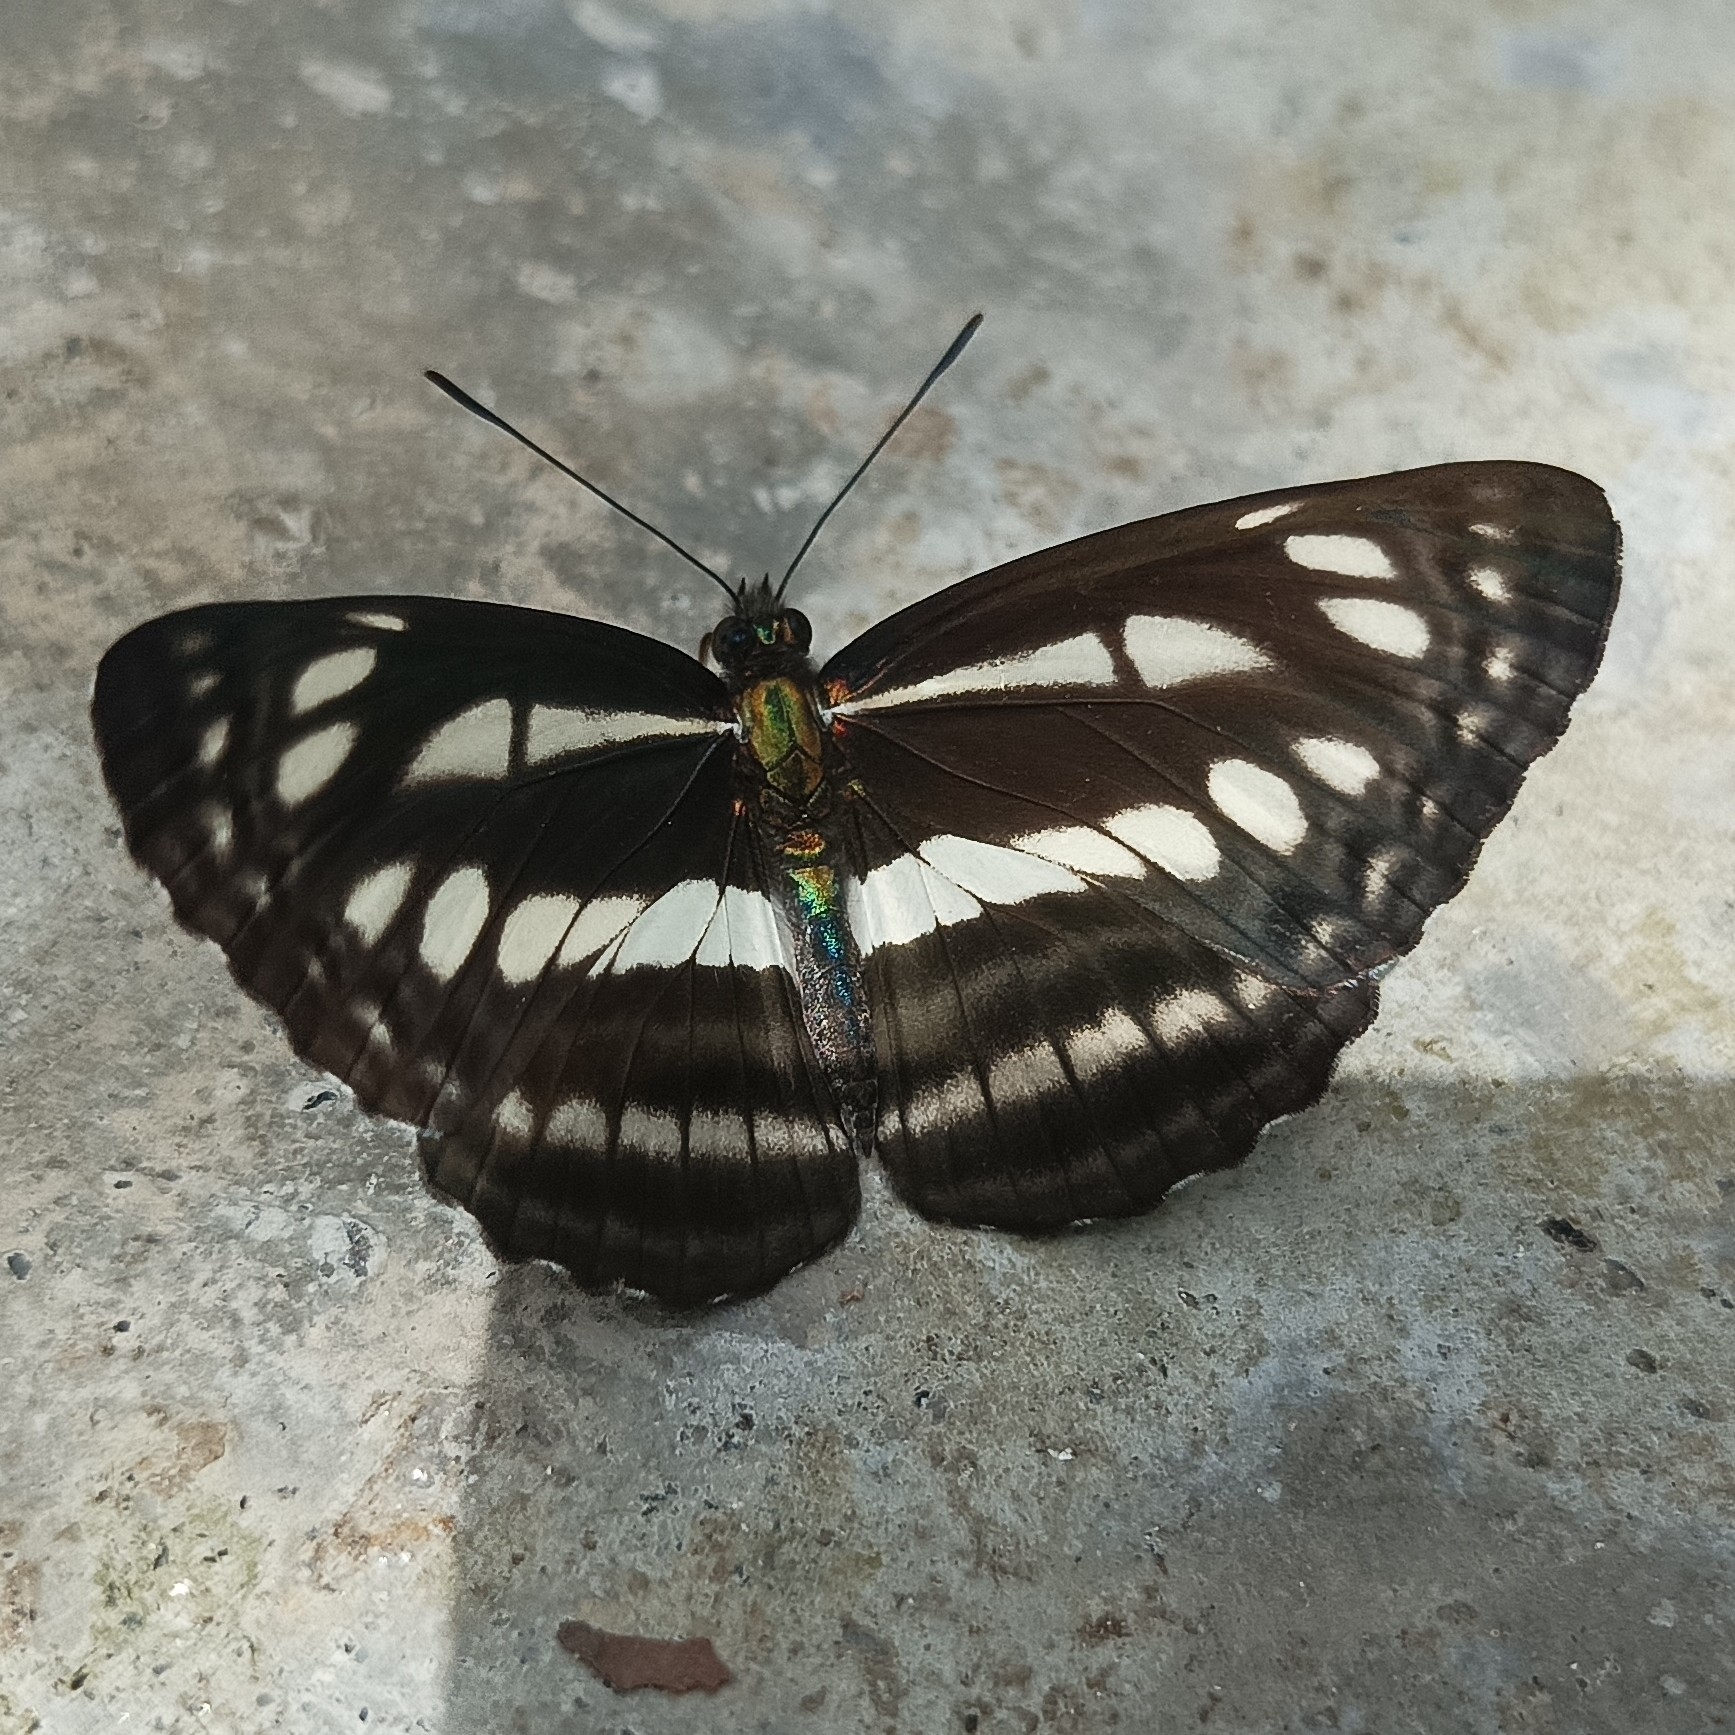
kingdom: Animalia
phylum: Arthropoda
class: Insecta
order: Lepidoptera
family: Nymphalidae
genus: Neptis
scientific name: Neptis soma
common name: Cream-spotted sailor
